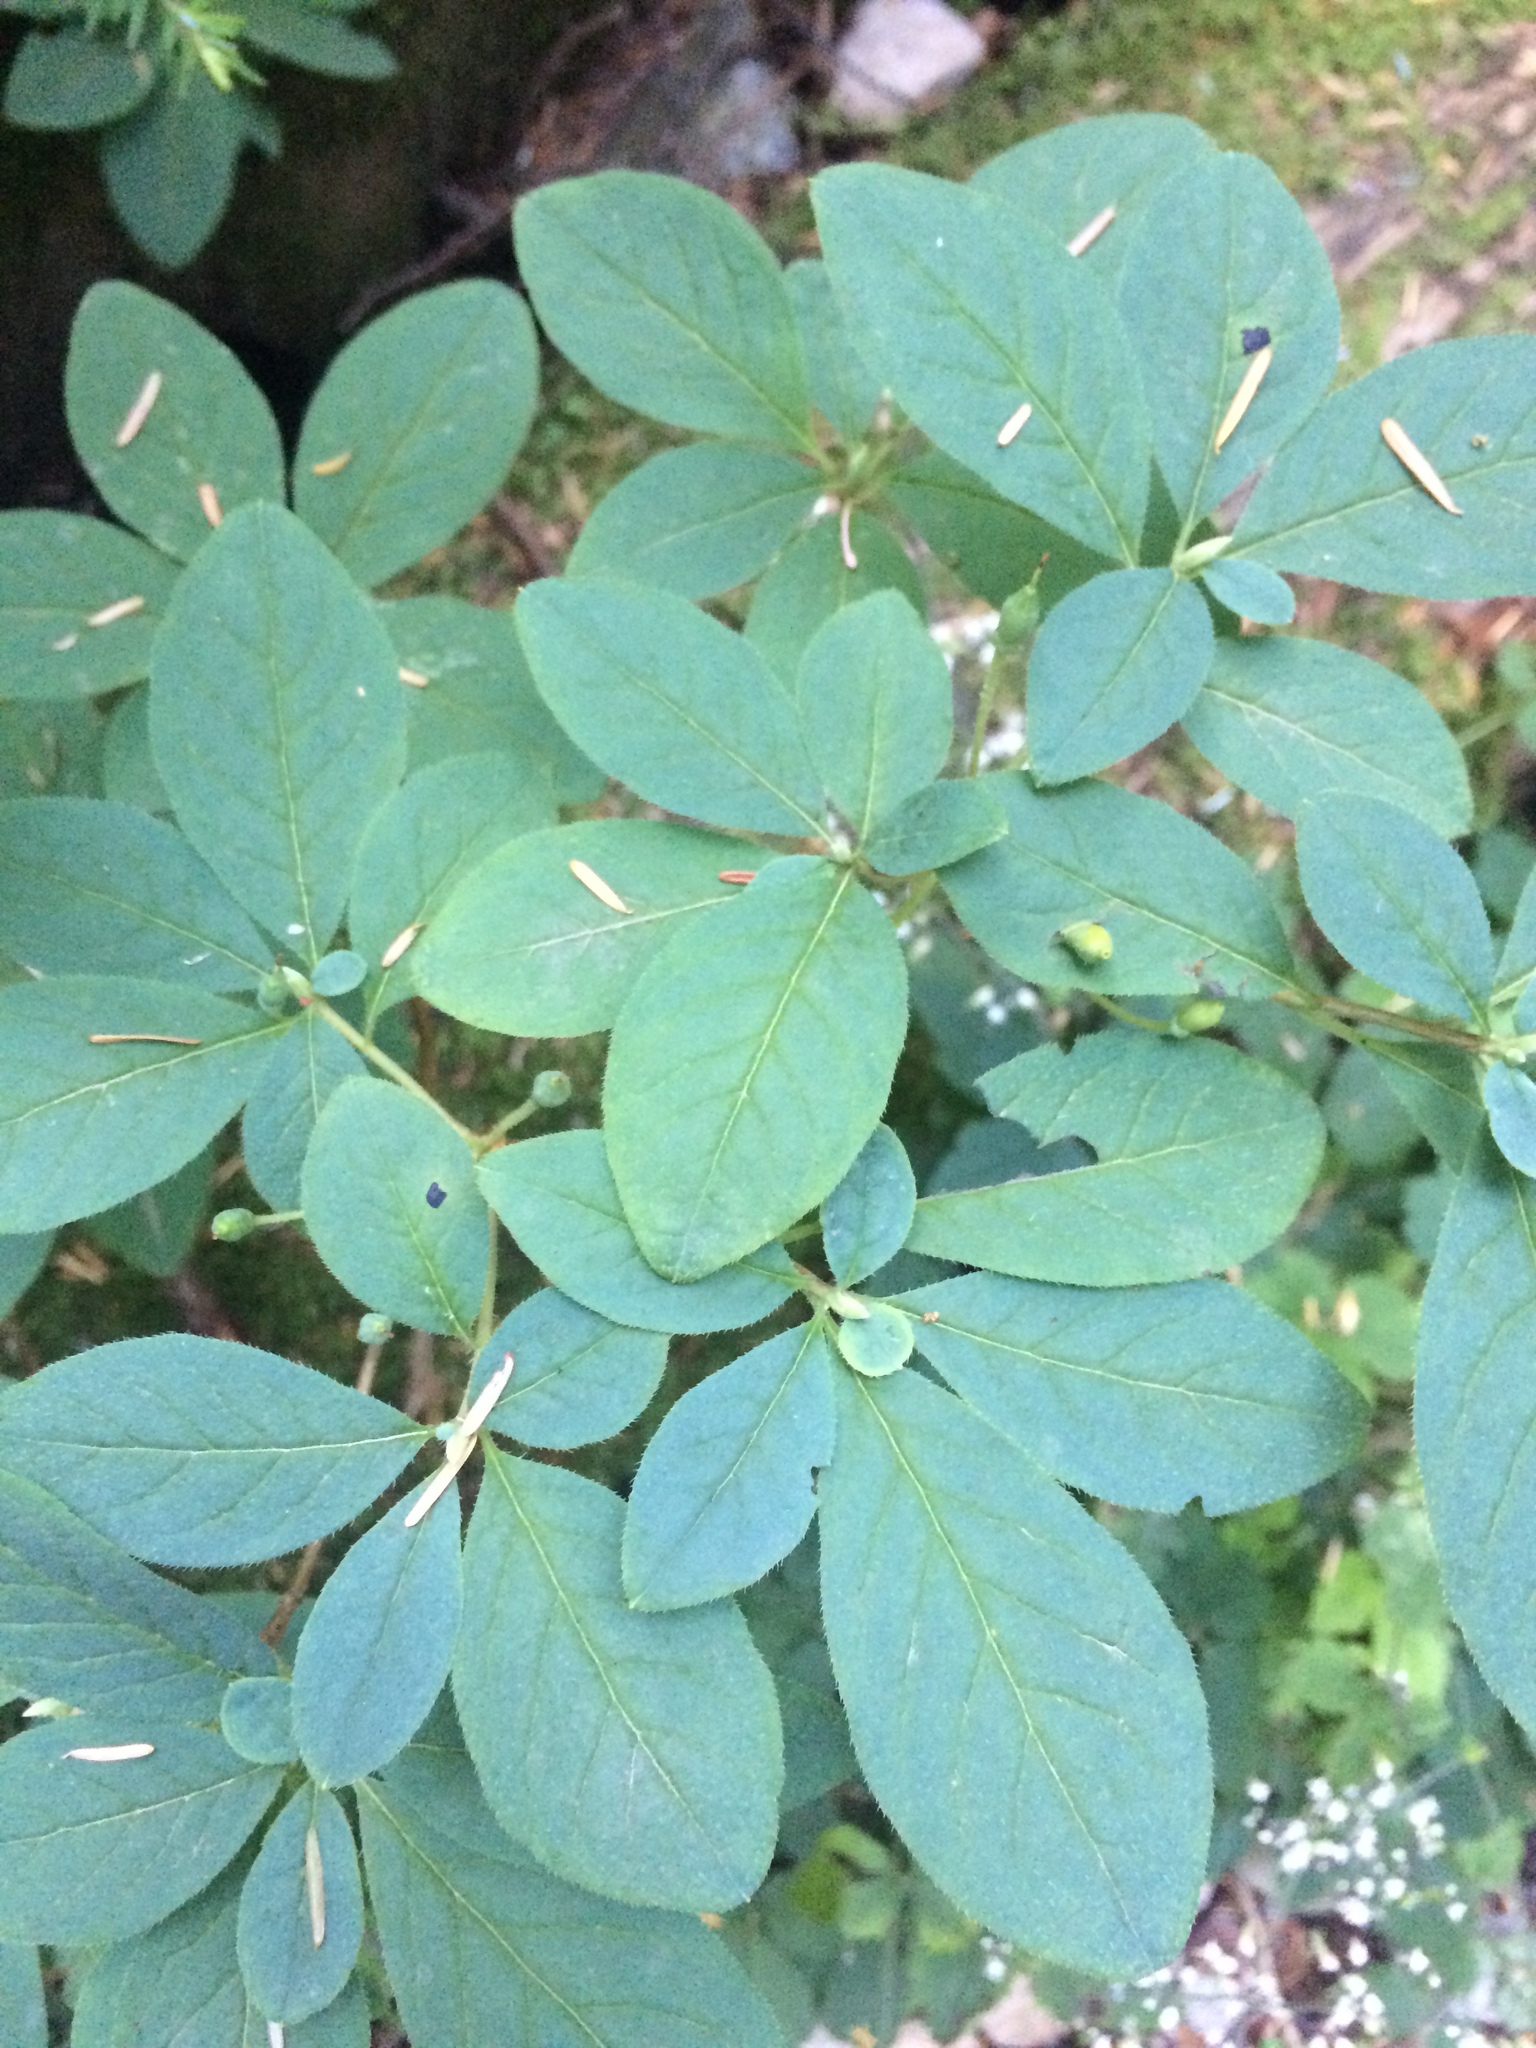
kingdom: Plantae
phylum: Tracheophyta
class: Magnoliopsida
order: Ericales
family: Ericaceae
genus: Rhododendron
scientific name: Rhododendron menziesii
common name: Pacific menziesia
